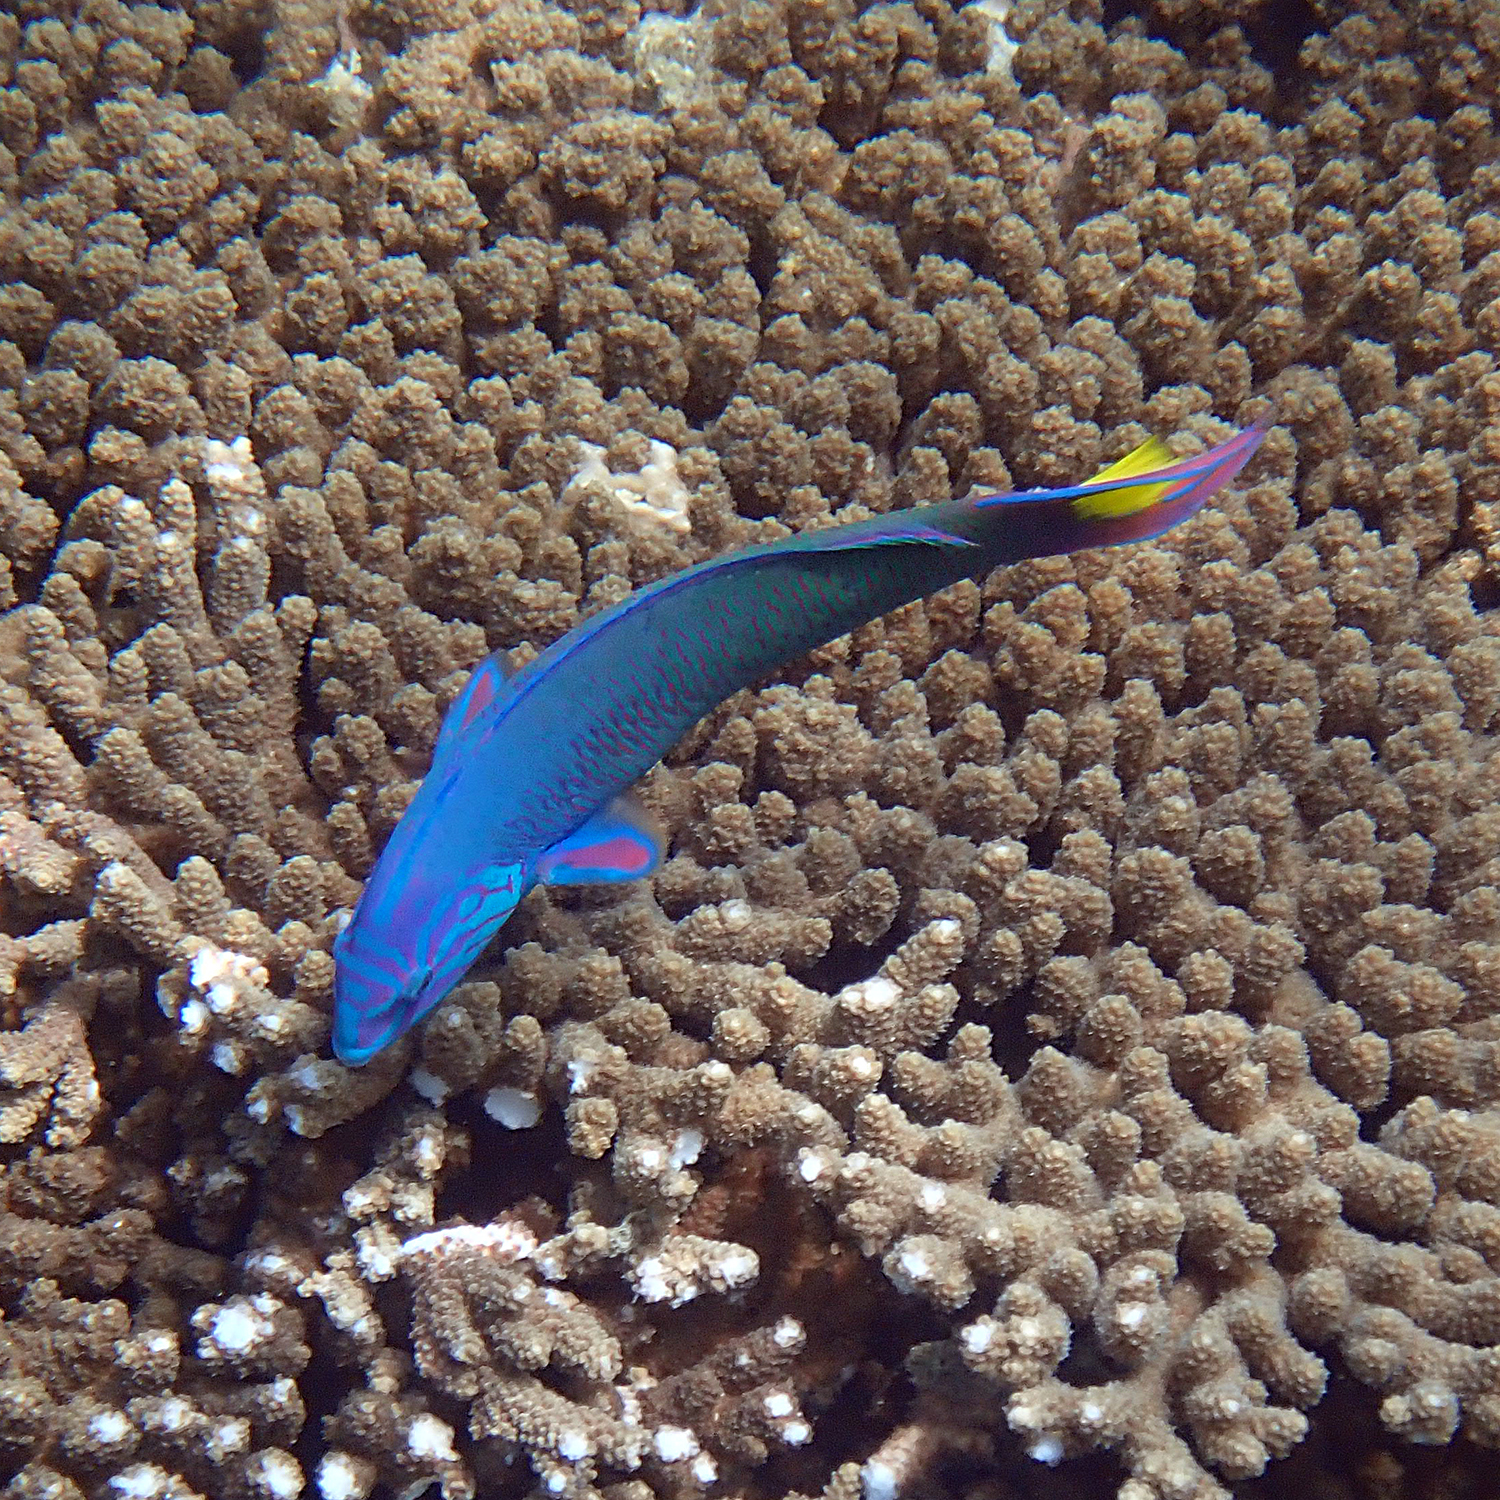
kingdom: Animalia
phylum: Chordata
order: Perciformes
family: Labridae
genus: Thalassoma
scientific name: Thalassoma lunare
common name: Blue wrasse
